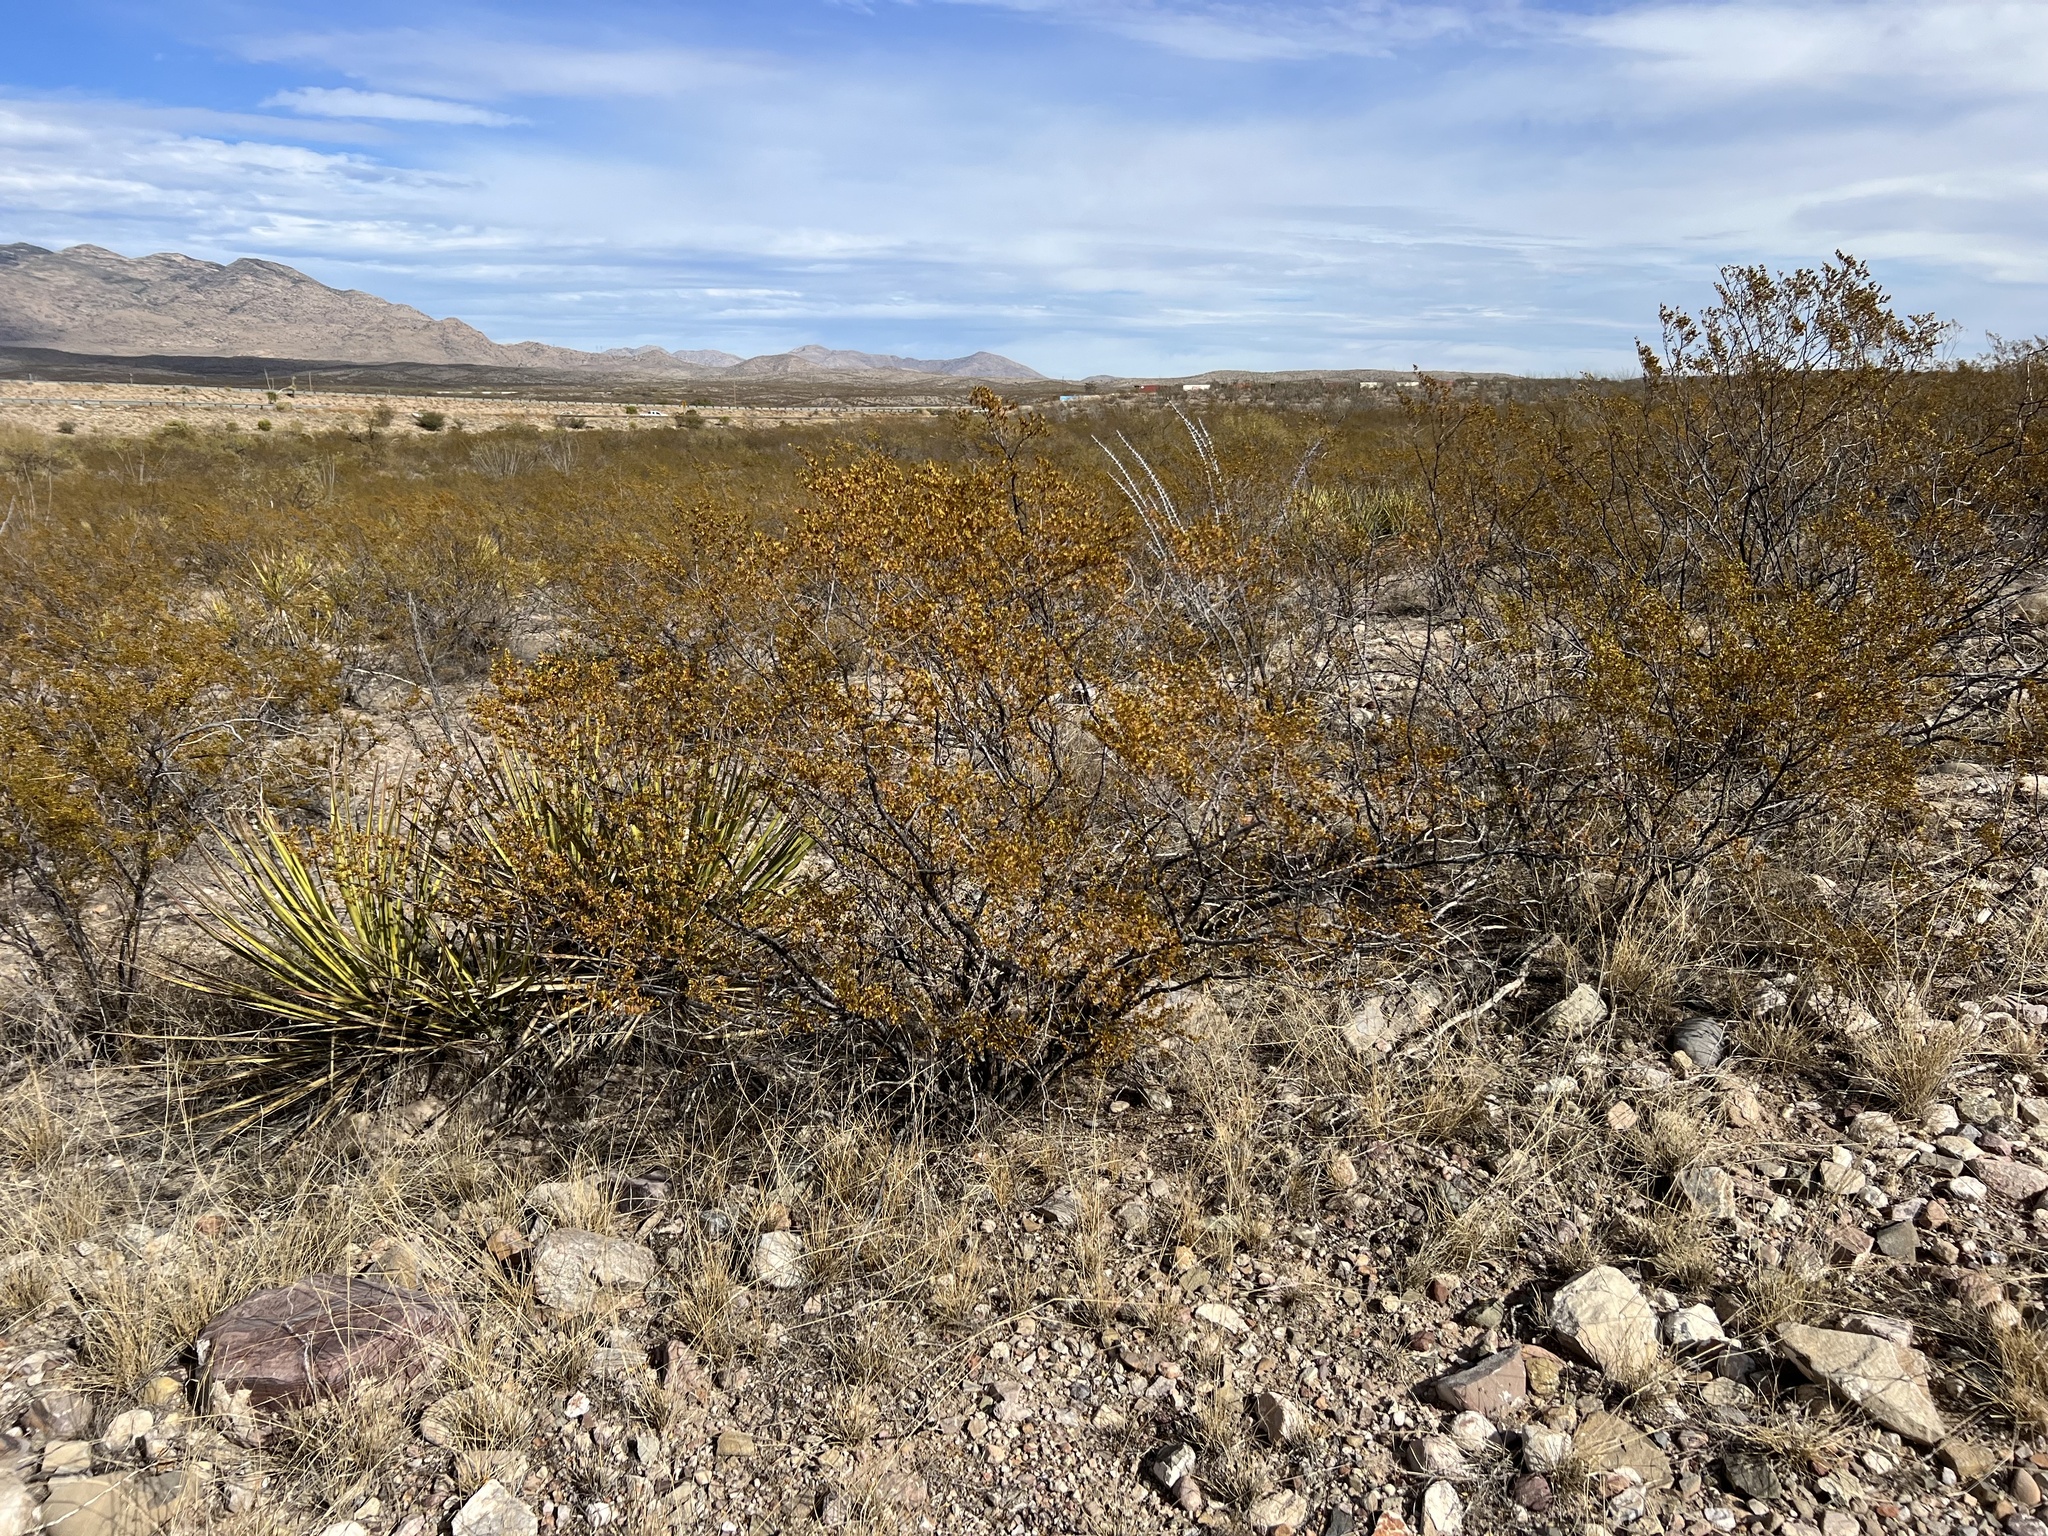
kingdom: Plantae
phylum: Tracheophyta
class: Magnoliopsida
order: Zygophyllales
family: Zygophyllaceae
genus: Larrea
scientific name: Larrea tridentata
